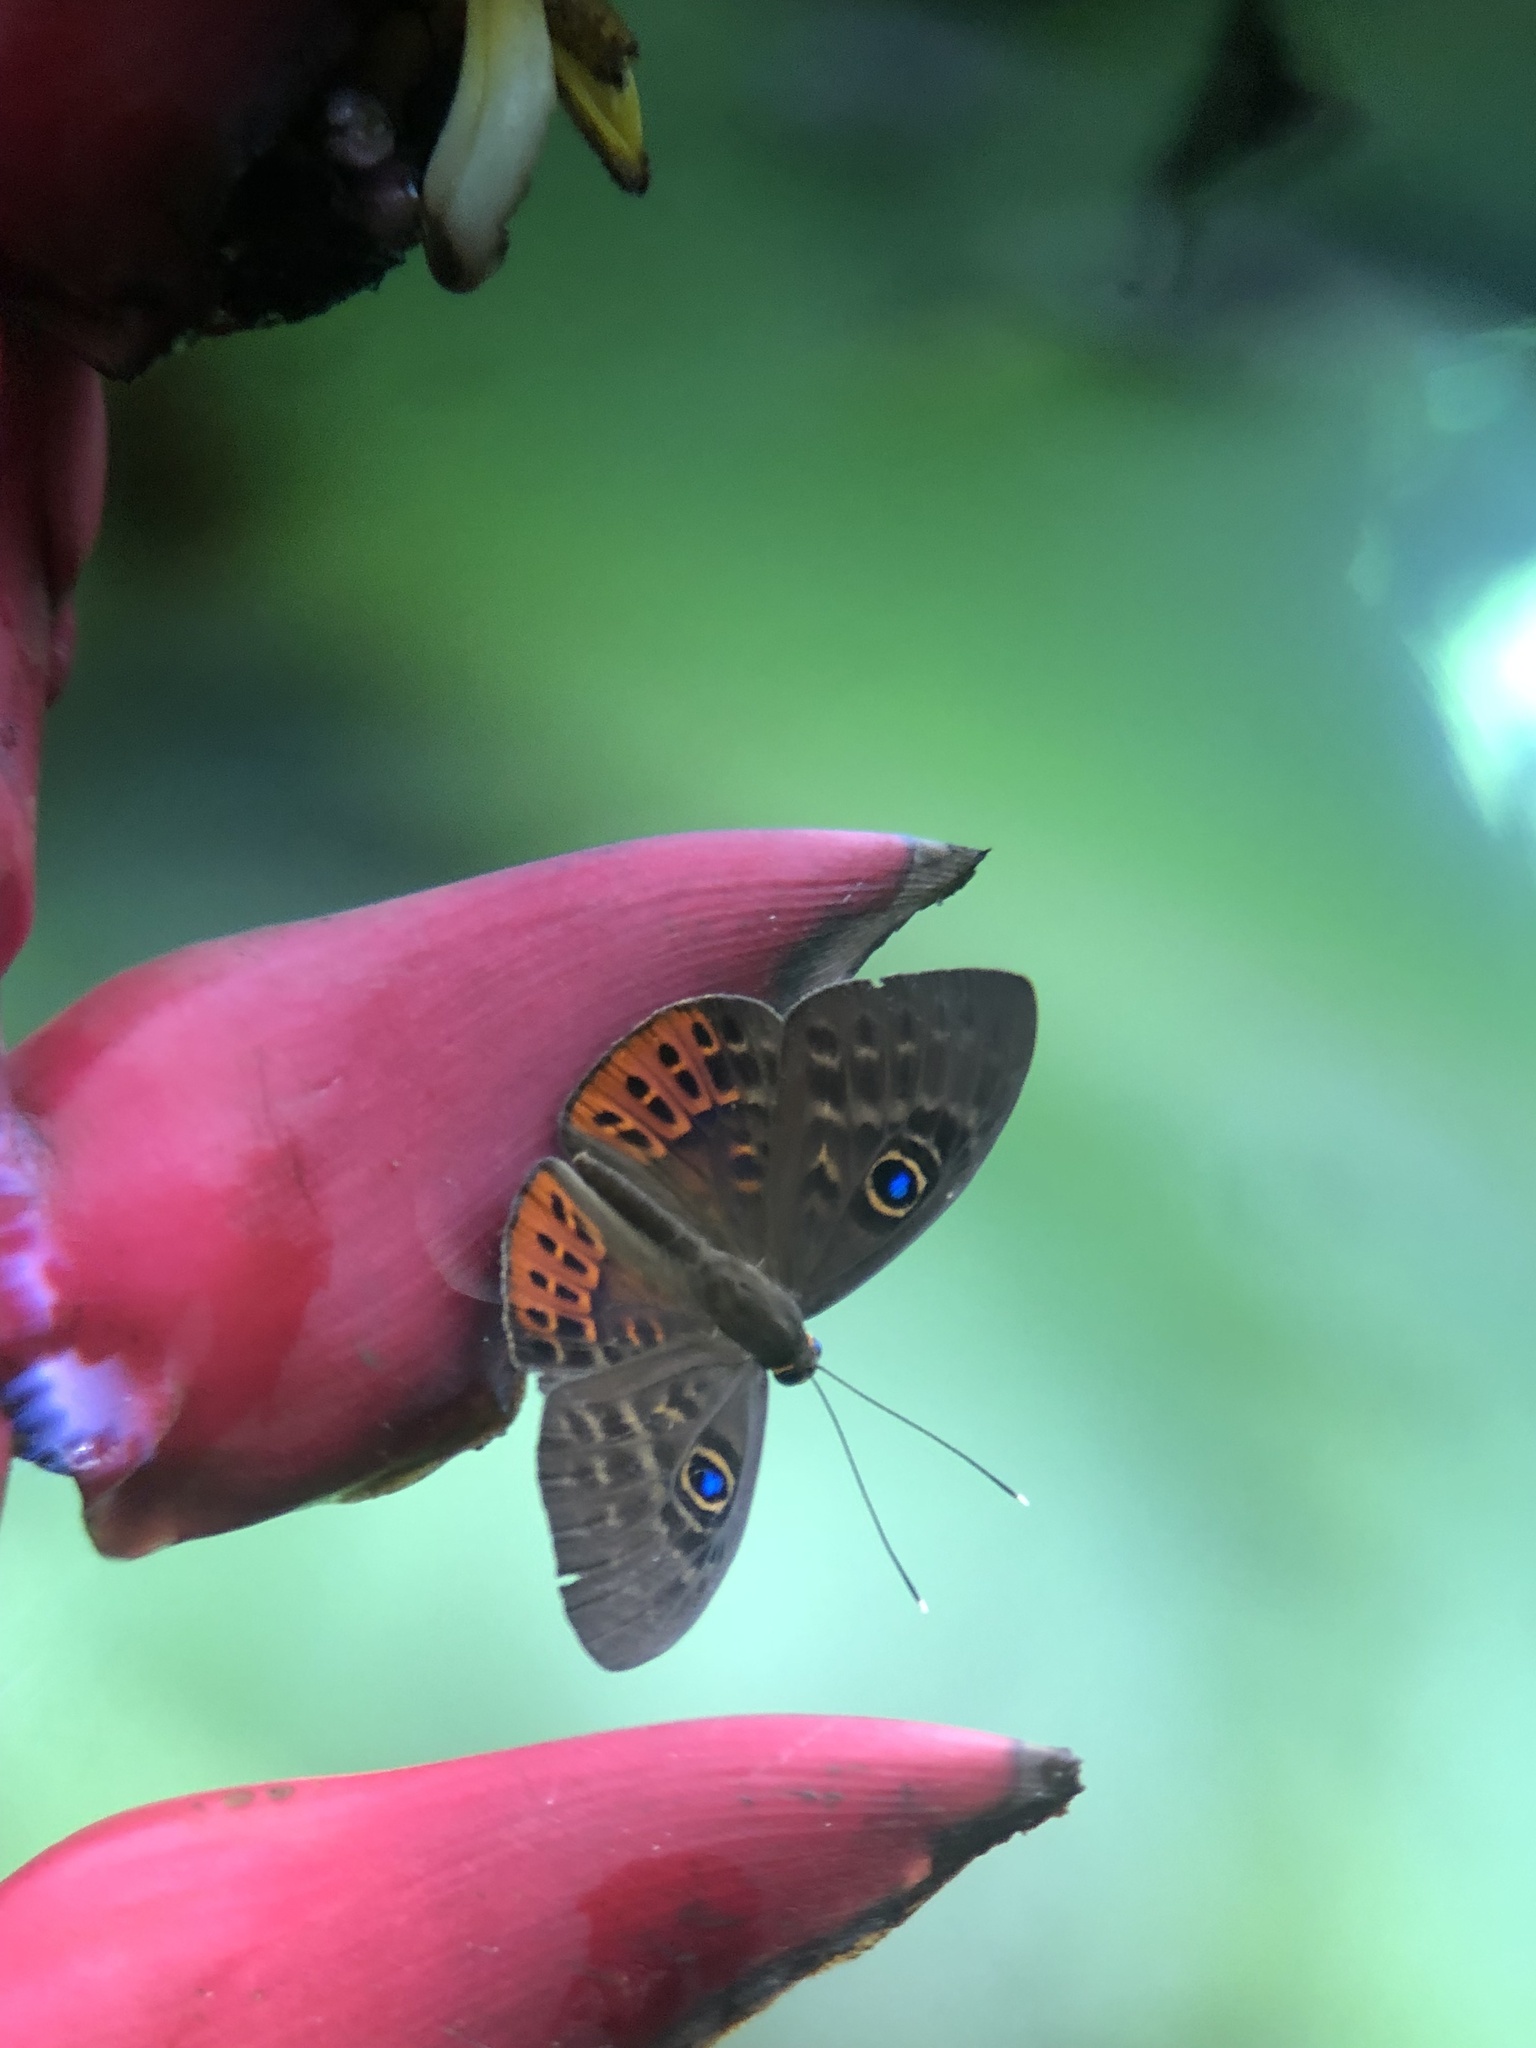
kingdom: Animalia
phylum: Cnidaria
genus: Eurybia
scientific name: Eurybia patrona
